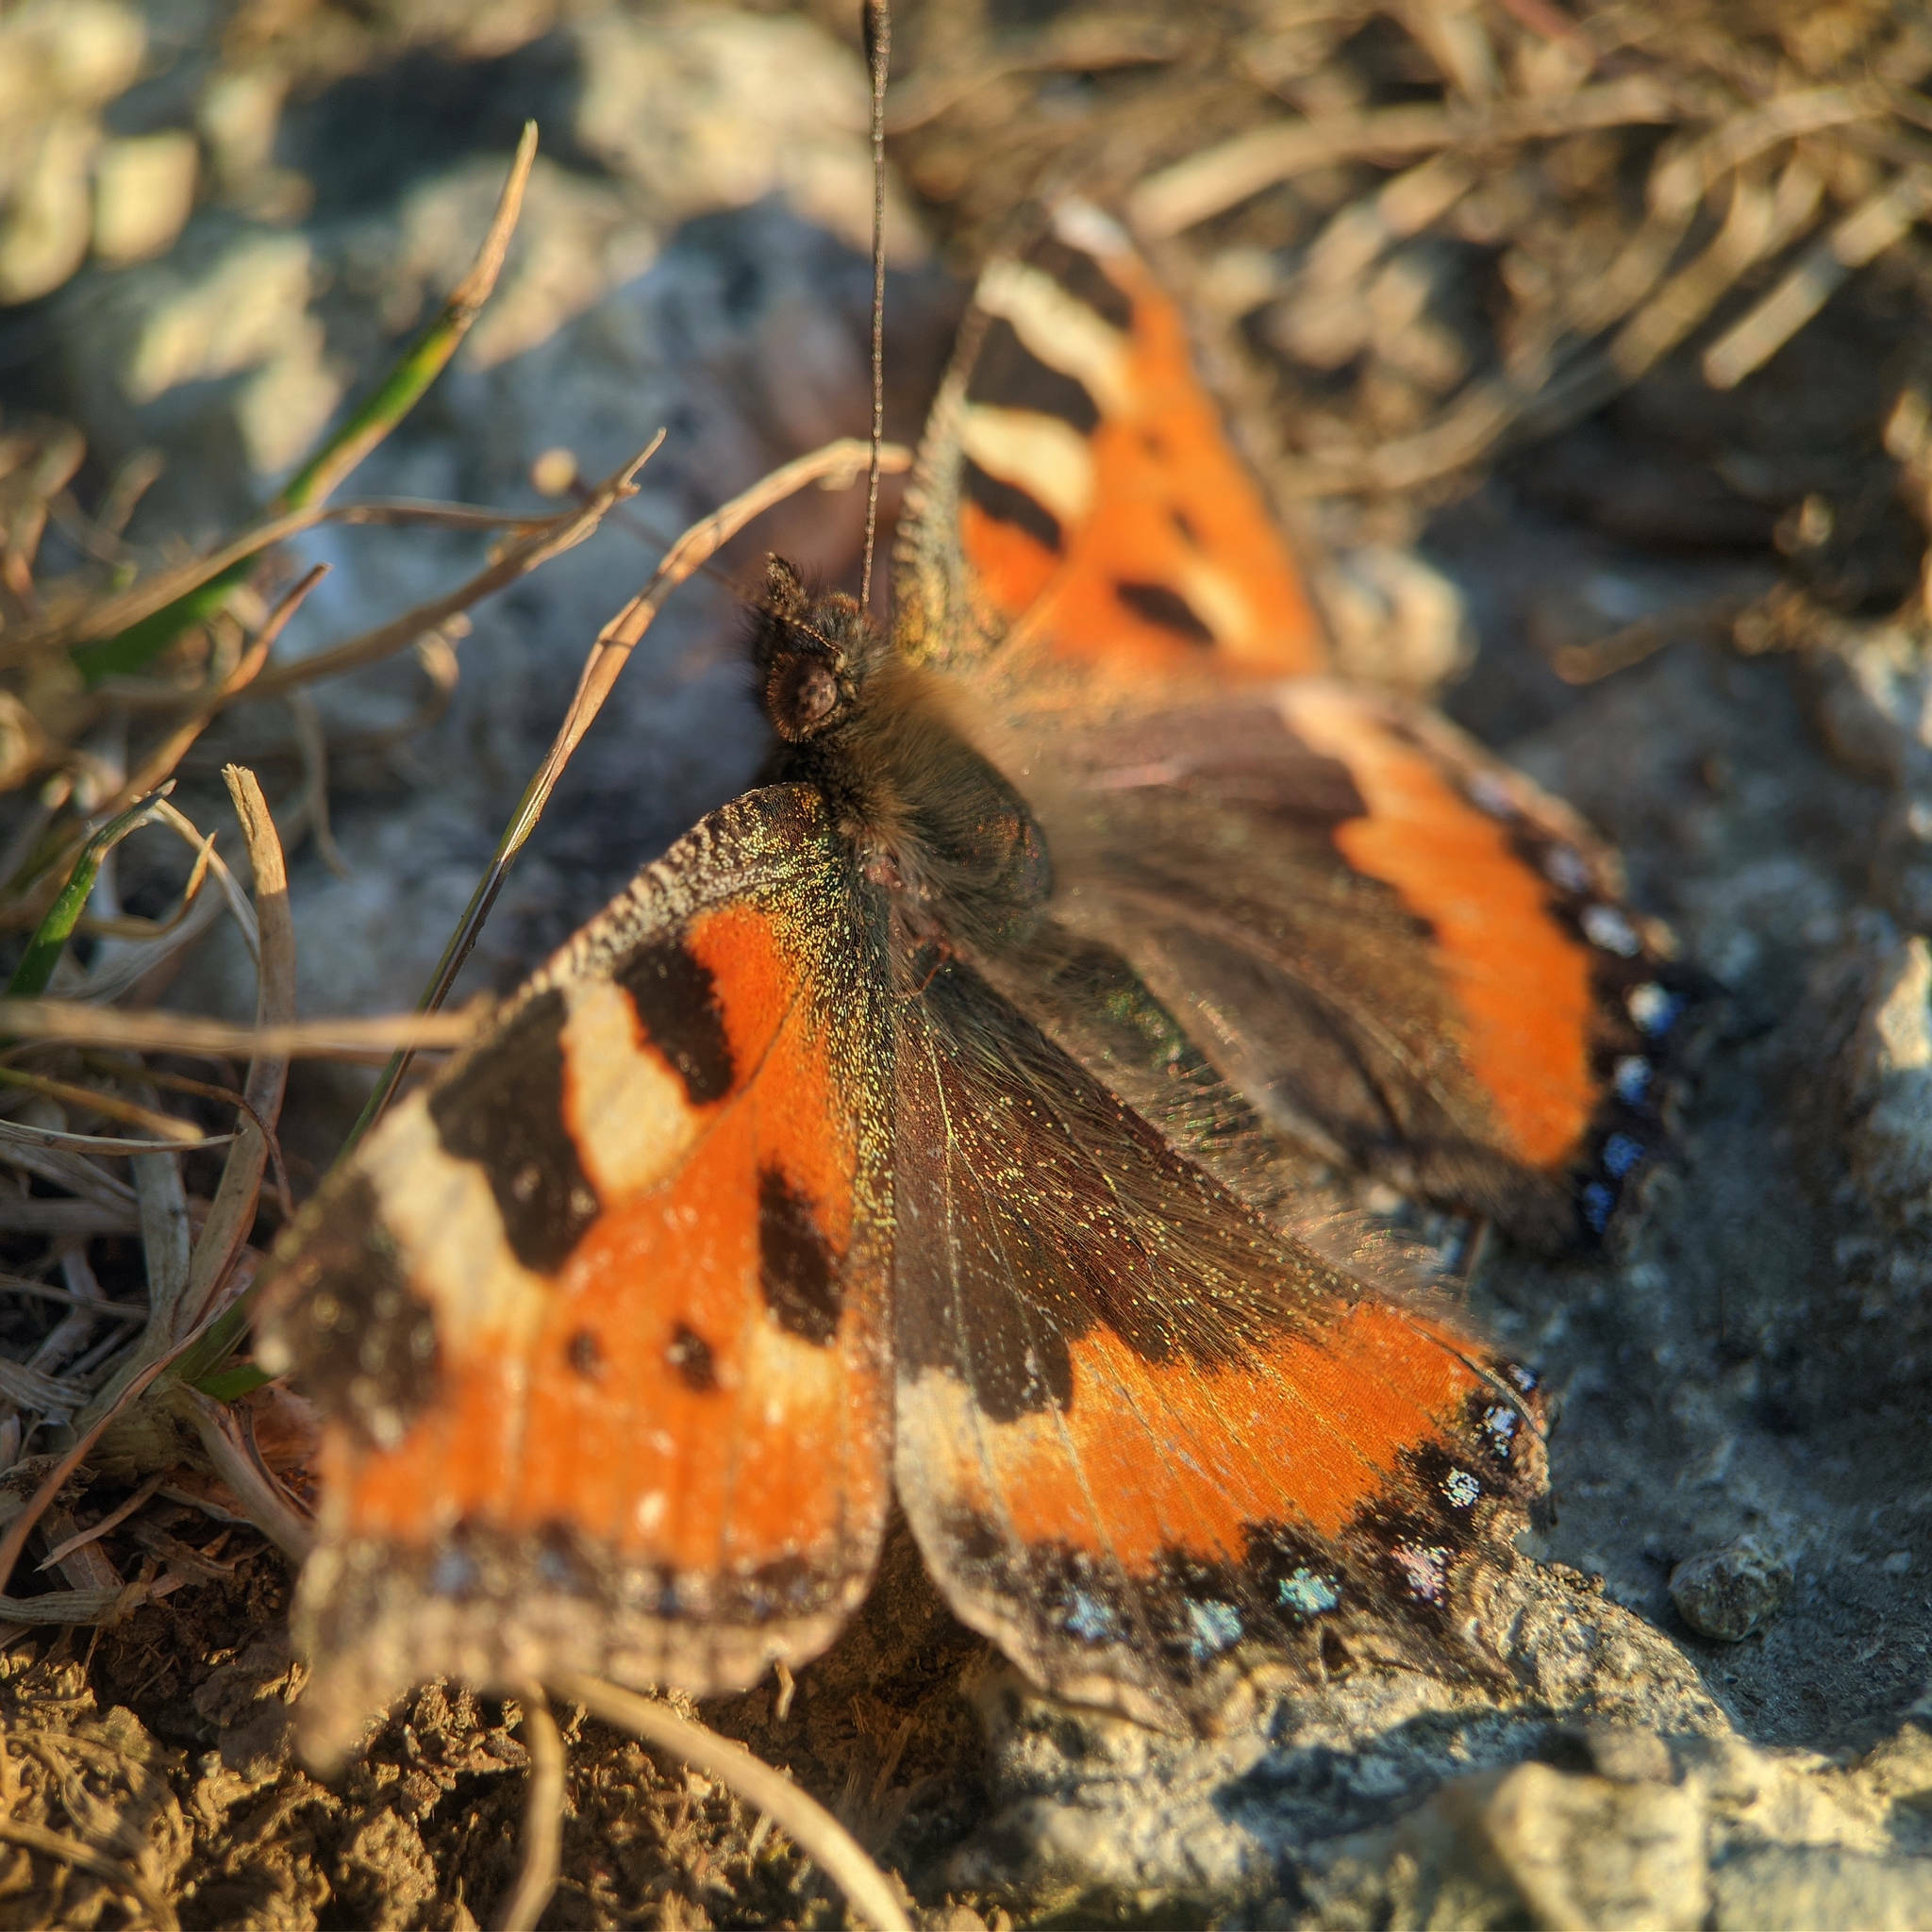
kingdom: Animalia
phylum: Arthropoda
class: Insecta
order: Lepidoptera
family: Nymphalidae
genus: Aglais
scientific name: Aglais urticae
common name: Small tortoiseshell
